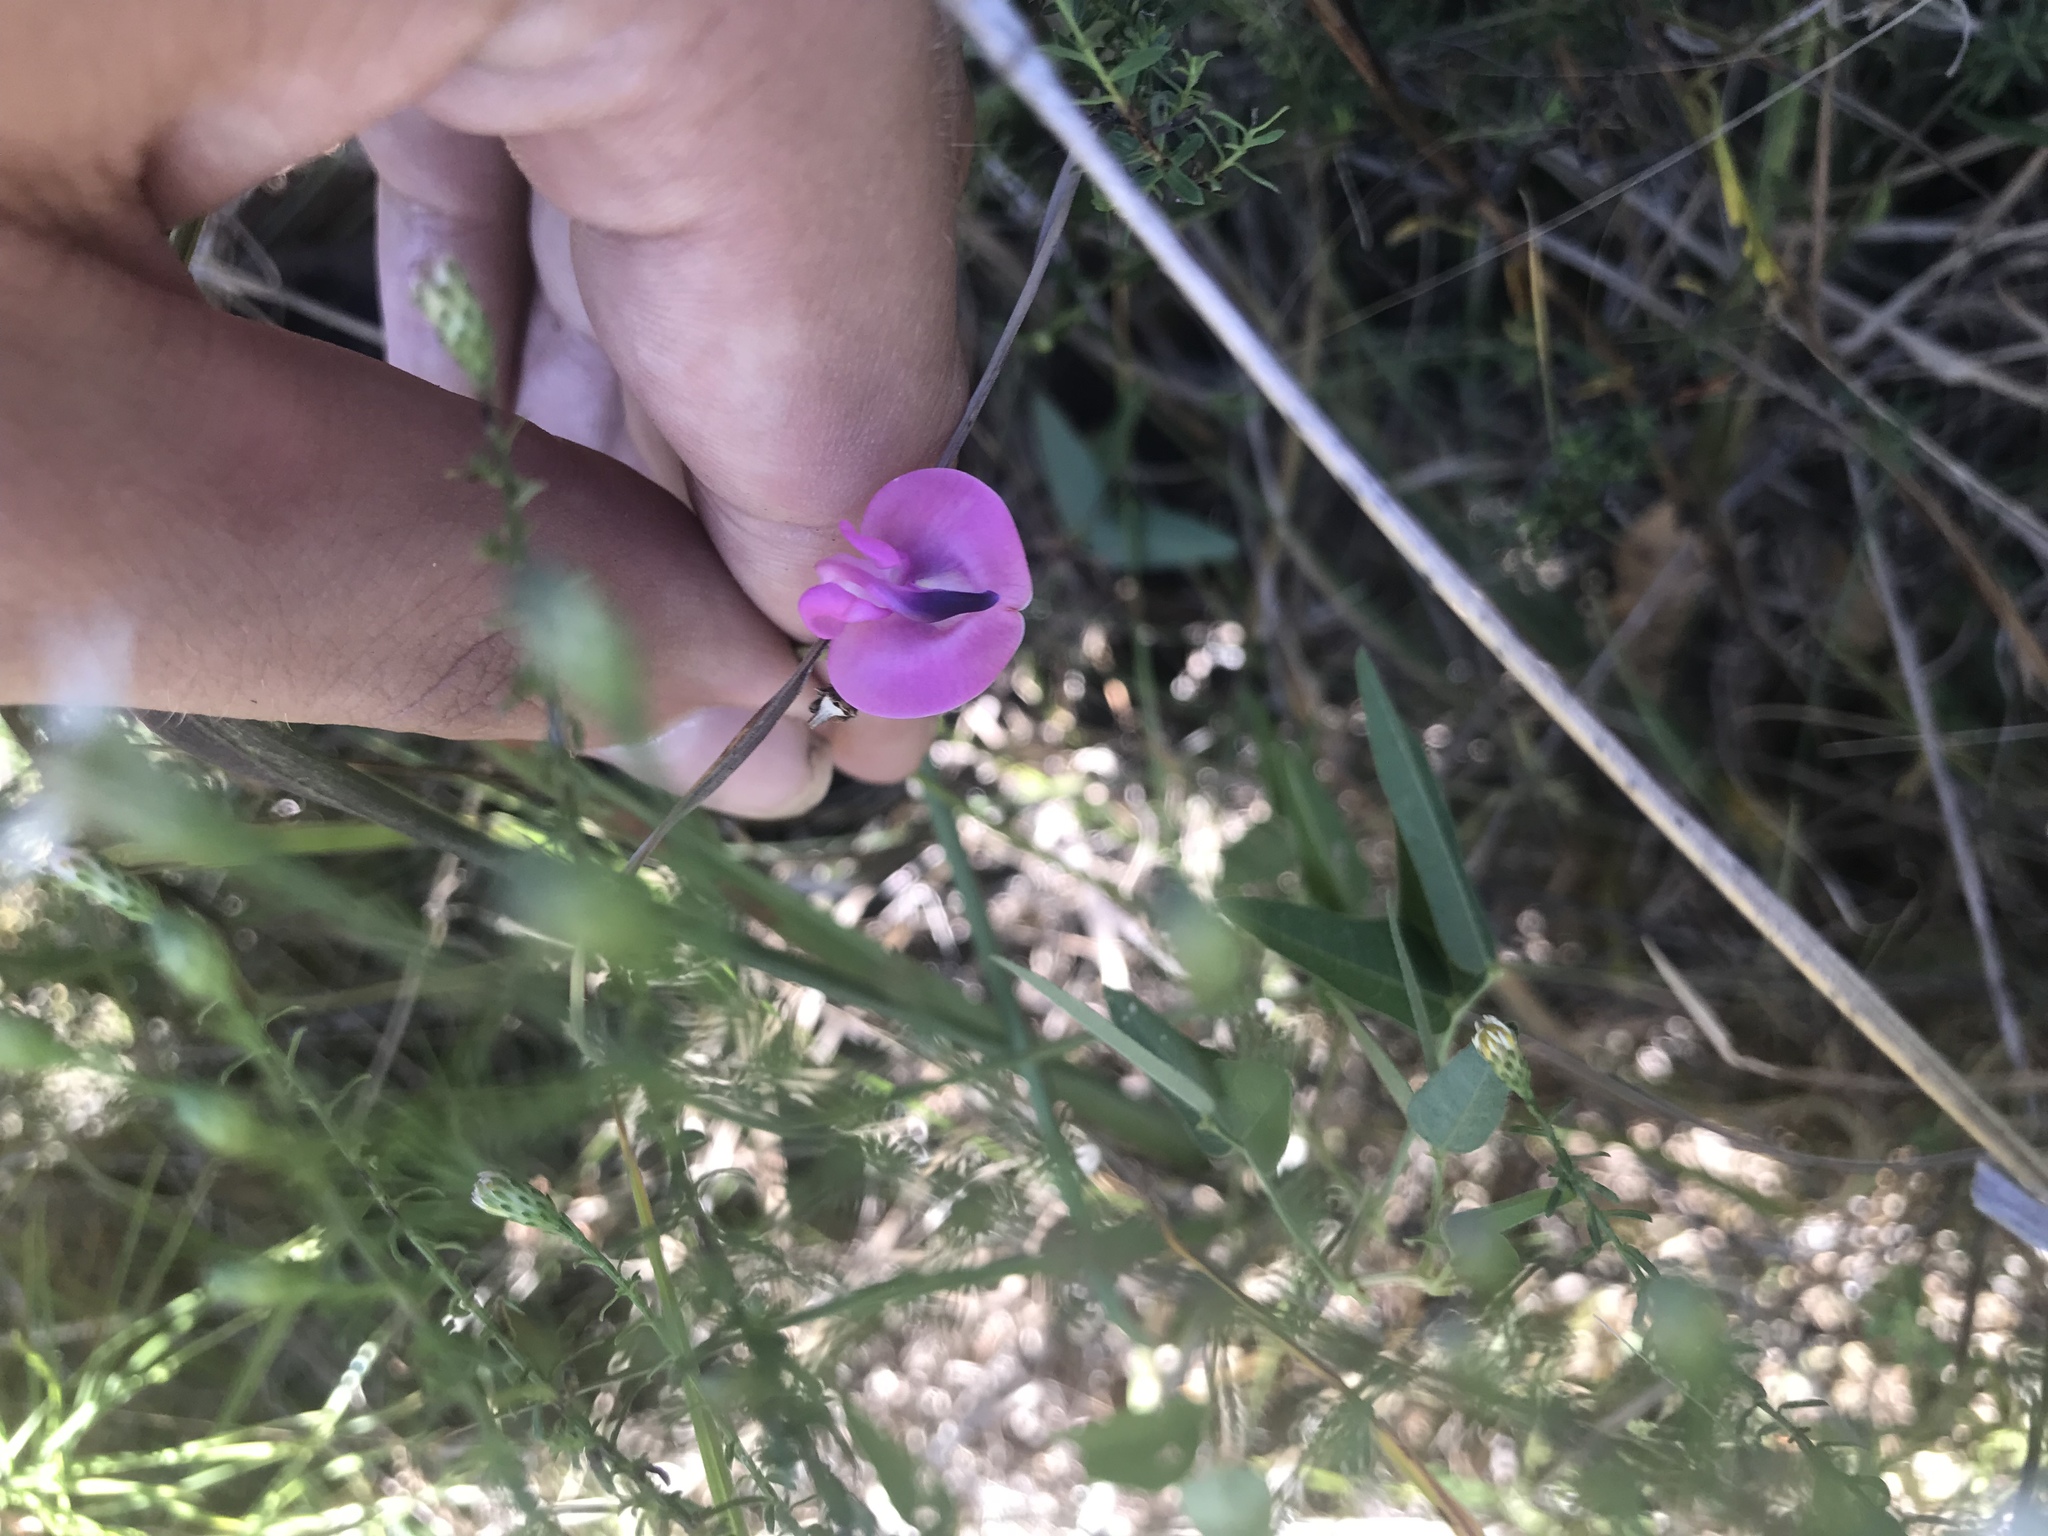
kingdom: Plantae
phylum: Tracheophyta
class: Magnoliopsida
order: Fabales
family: Fabaceae
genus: Strophostyles
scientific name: Strophostyles umbellata
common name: Perennial wild bean
